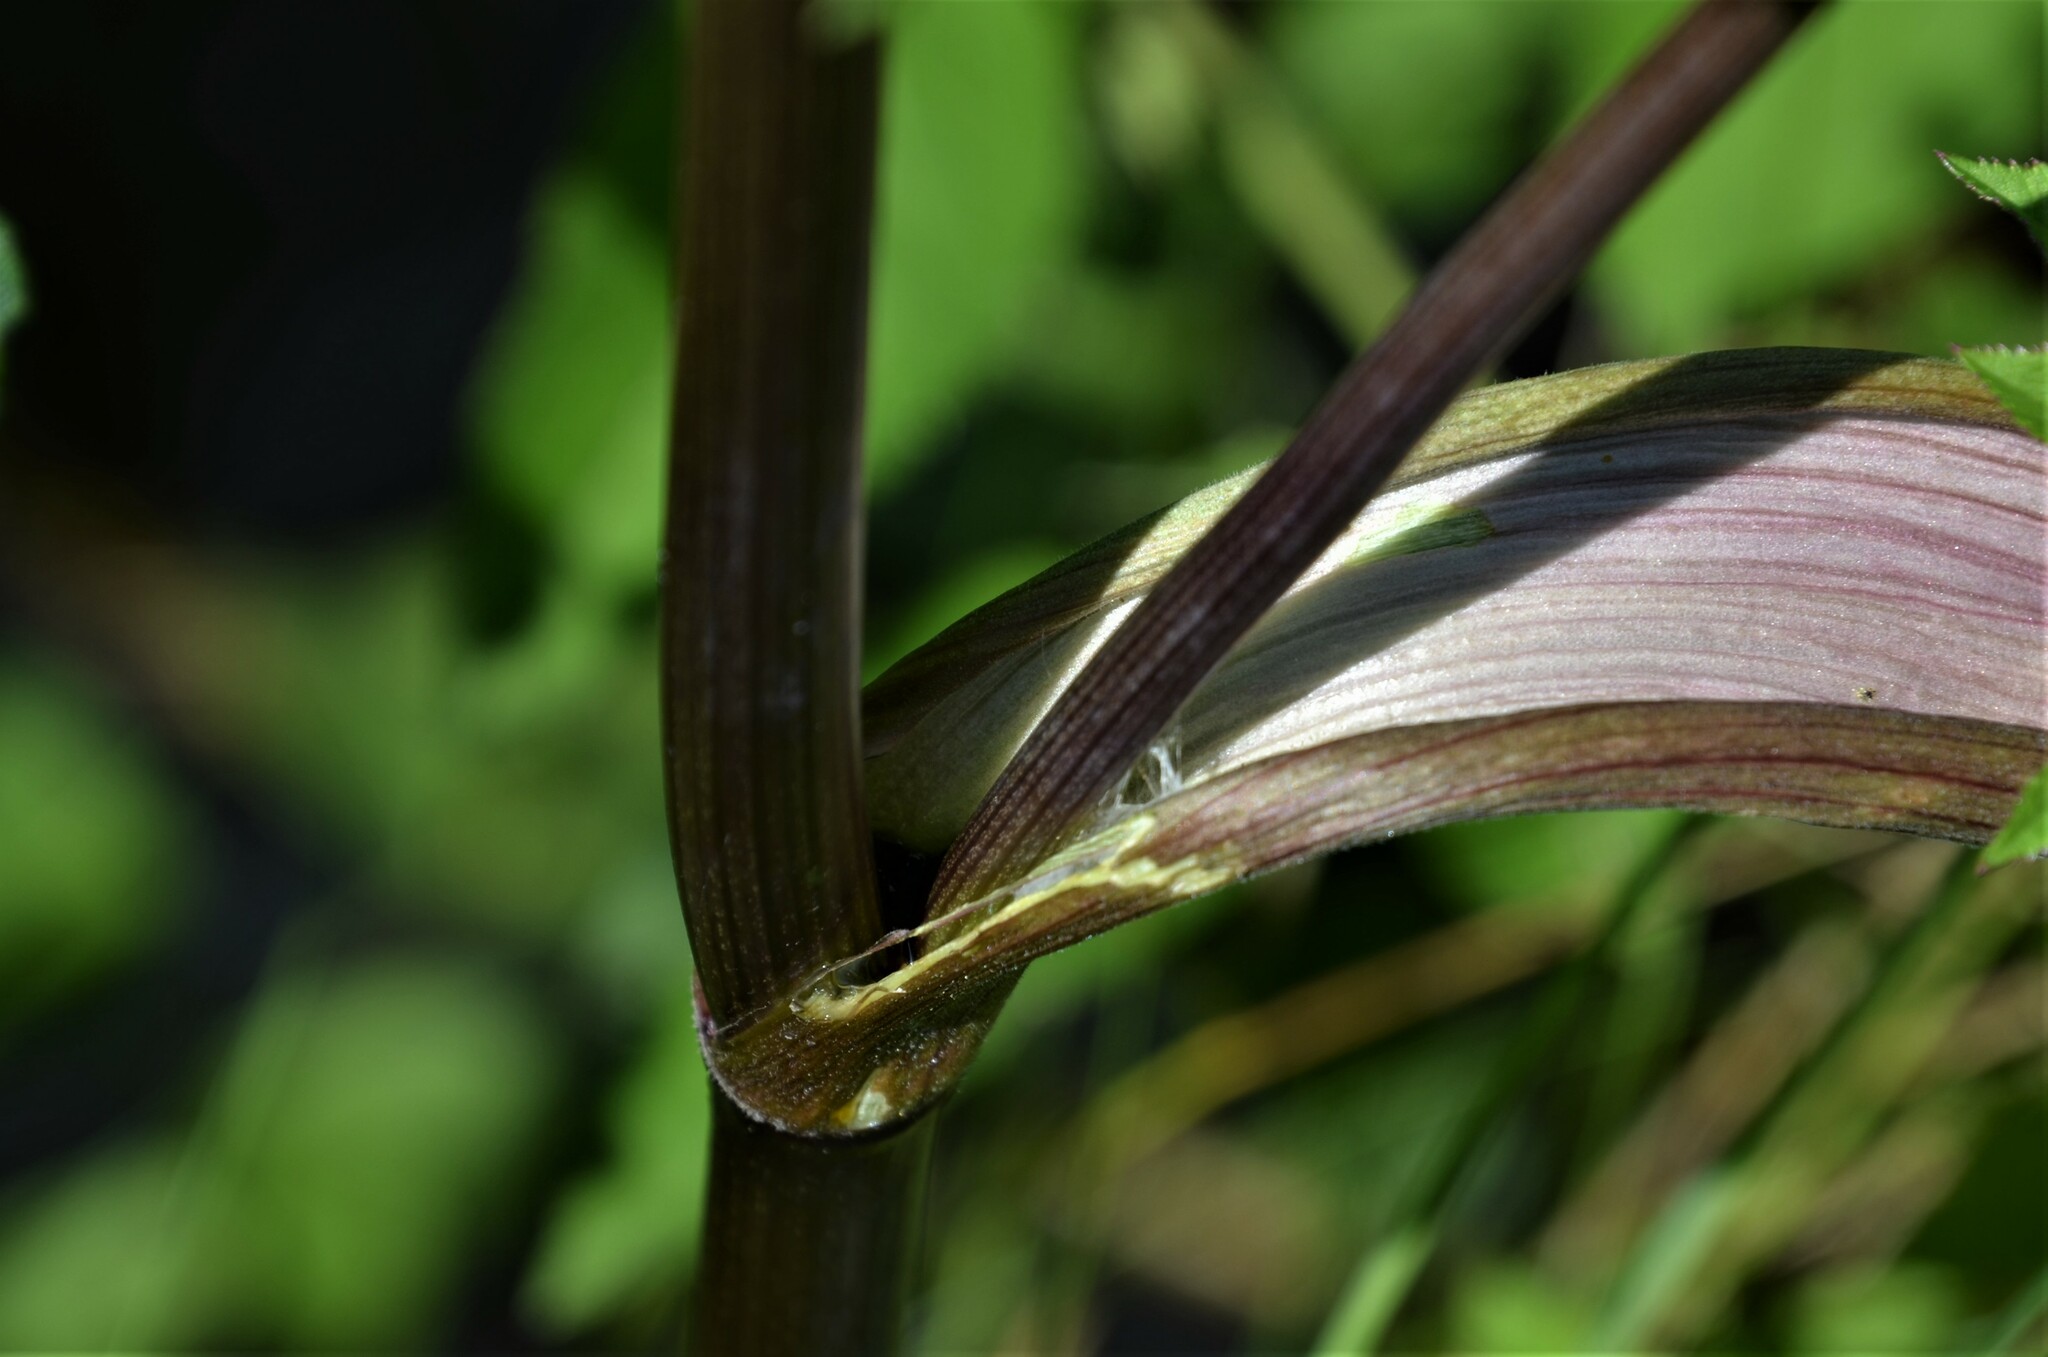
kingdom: Plantae
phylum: Tracheophyta
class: Magnoliopsida
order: Apiales
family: Apiaceae
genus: Angelica
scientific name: Angelica sylvestris
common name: Wild angelica
